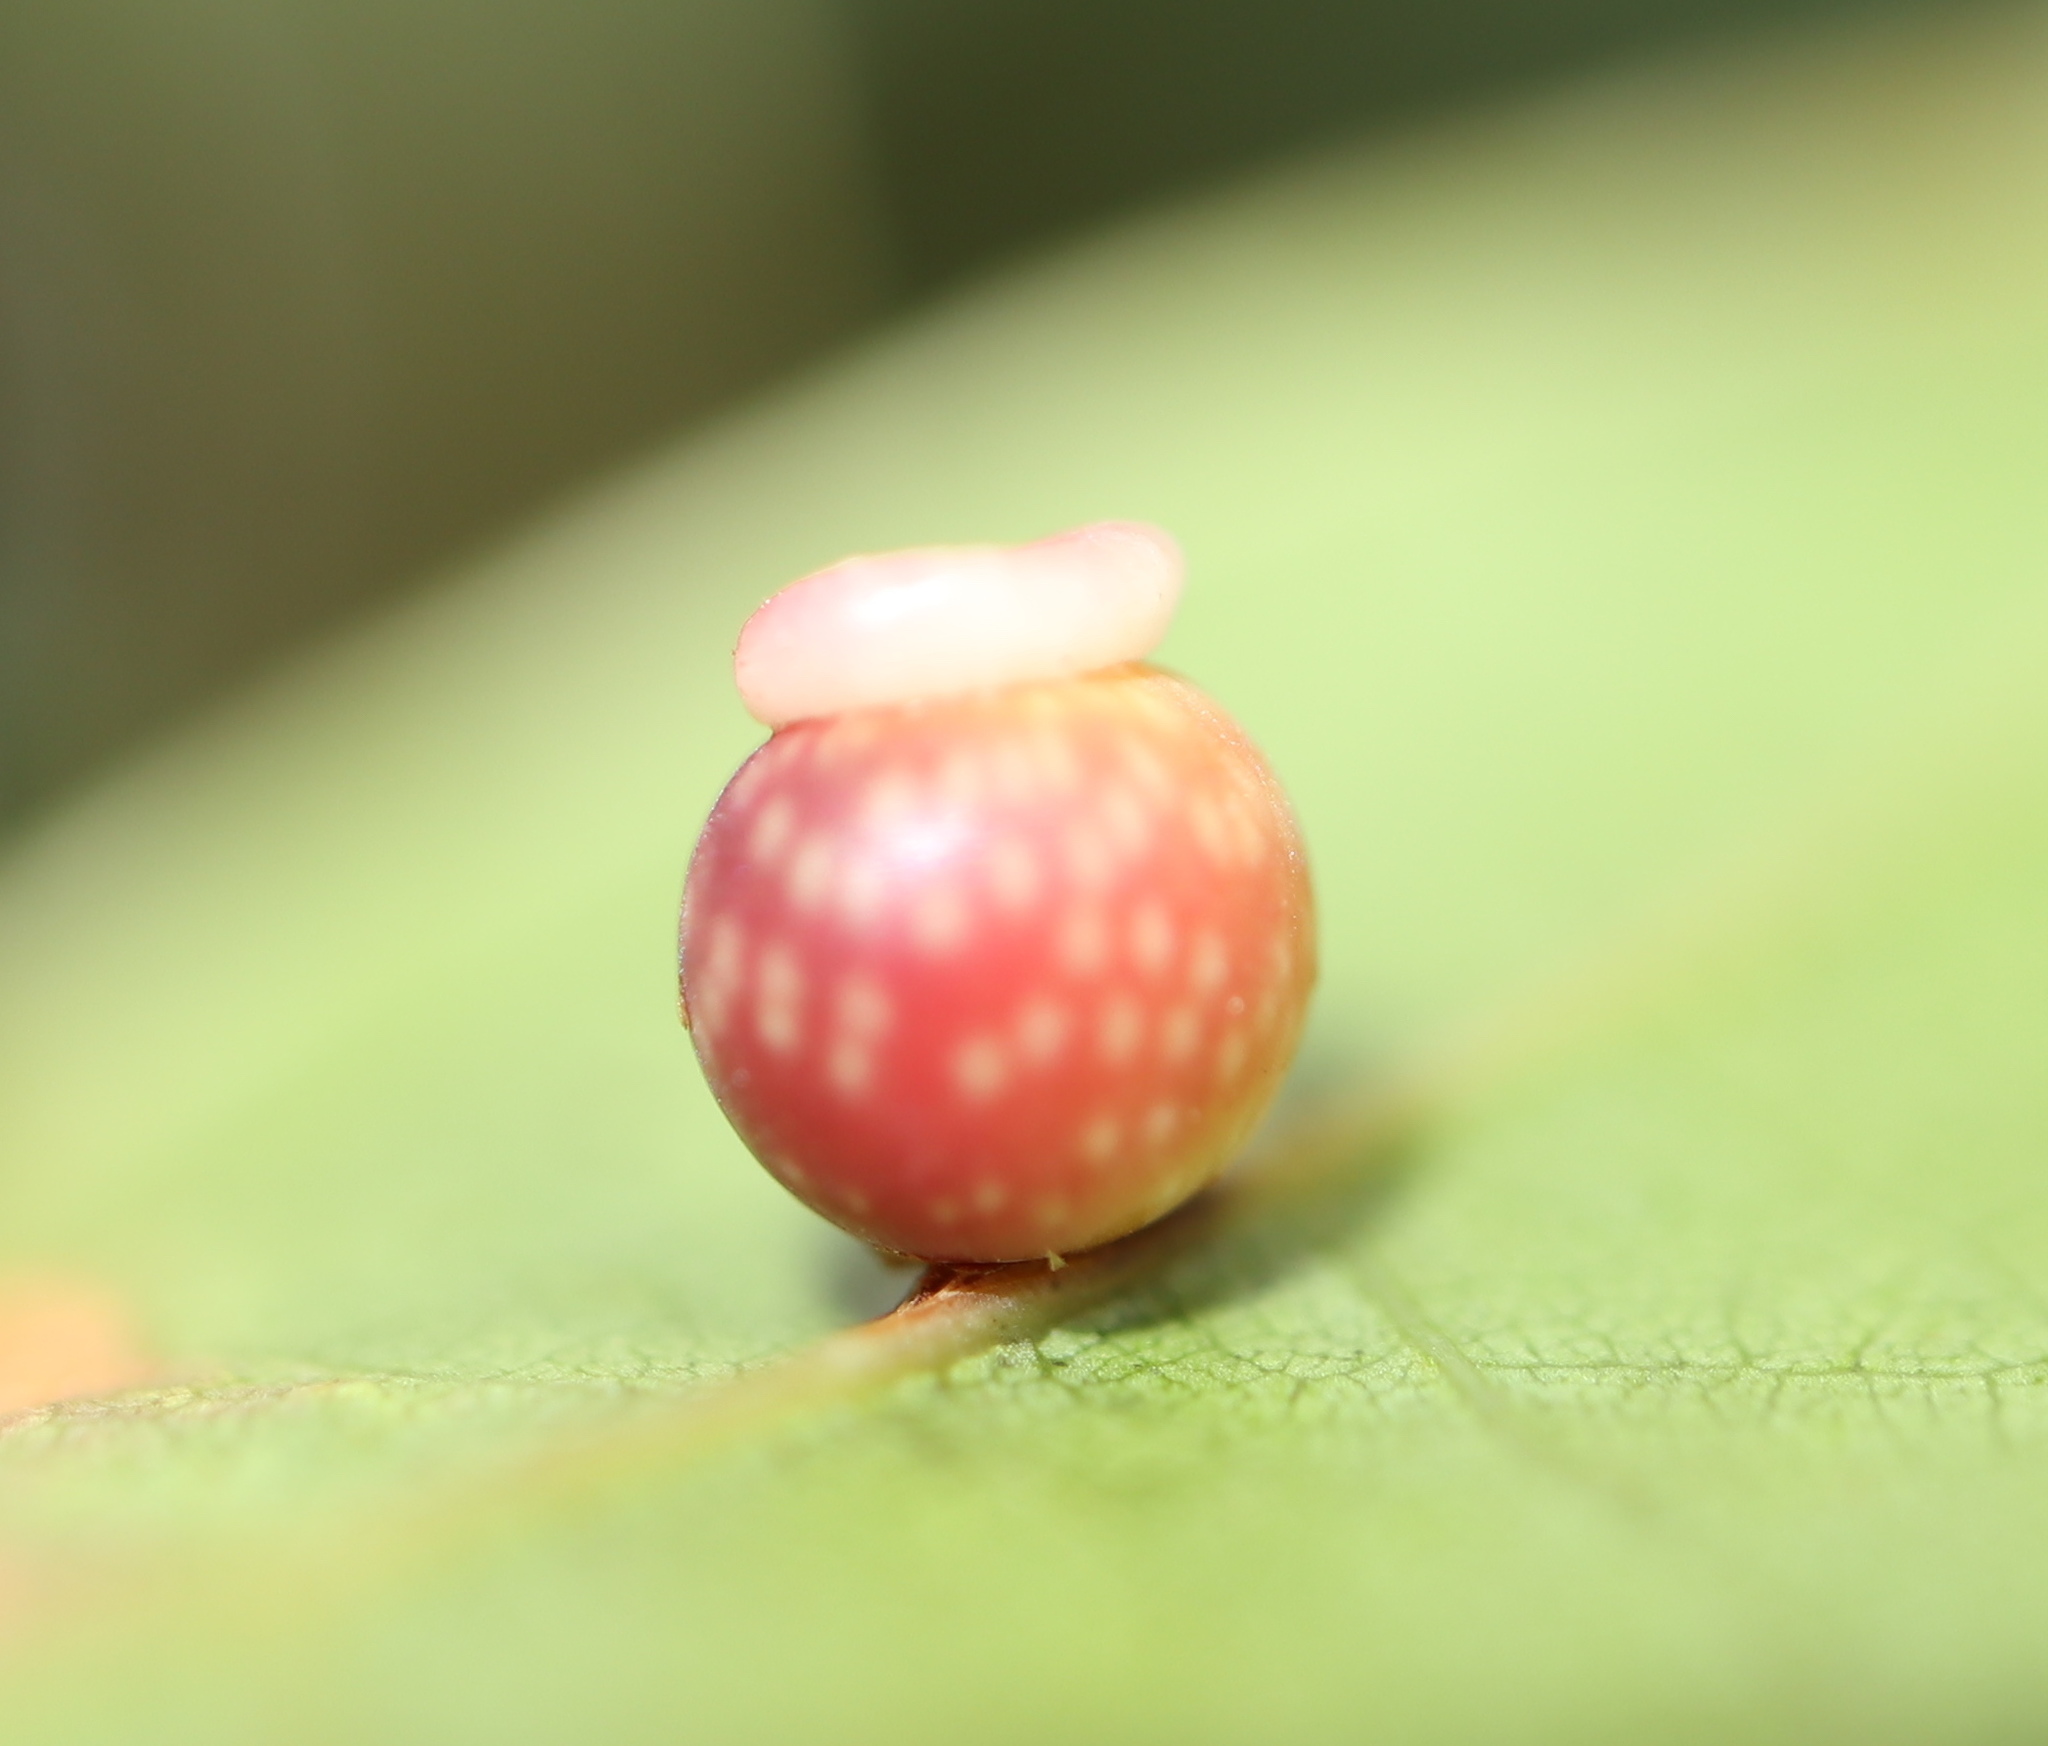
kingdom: Animalia
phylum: Arthropoda
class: Insecta
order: Hymenoptera
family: Cynipidae
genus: Kokkocynips
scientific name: Kokkocynips rileyi
